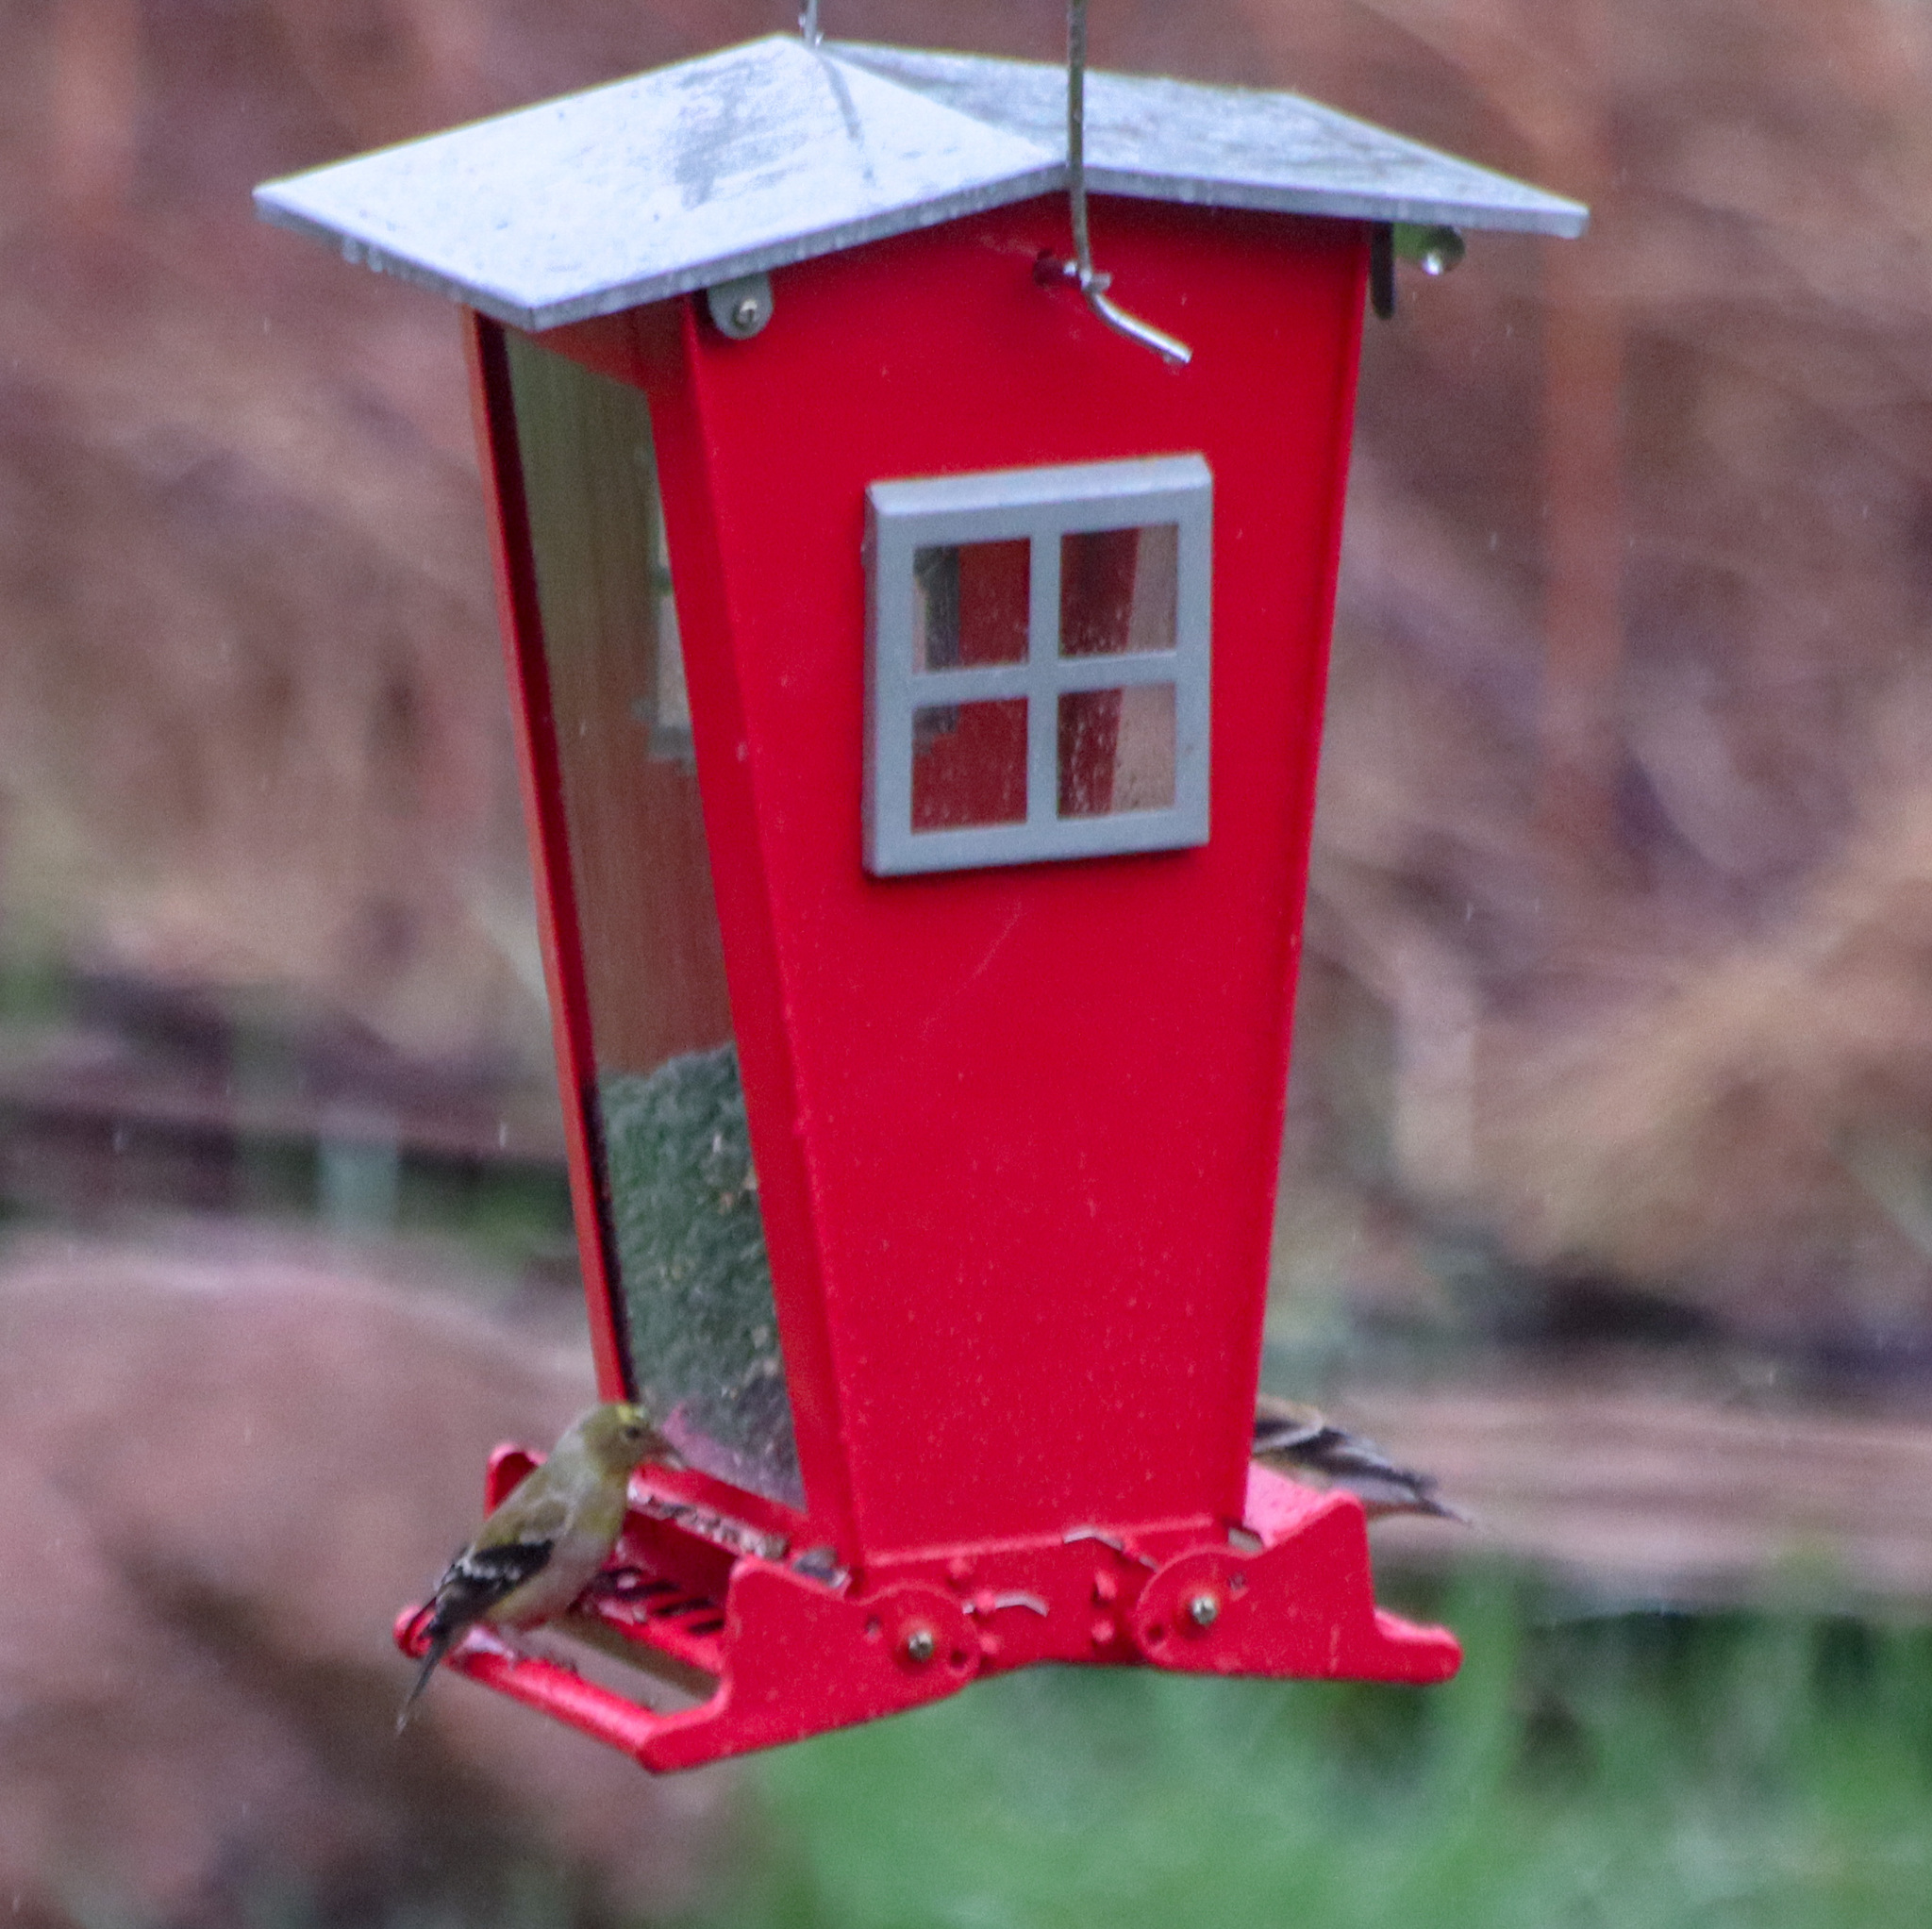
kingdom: Animalia
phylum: Chordata
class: Aves
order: Passeriformes
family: Fringillidae
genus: Spinus
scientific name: Spinus tristis
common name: American goldfinch
